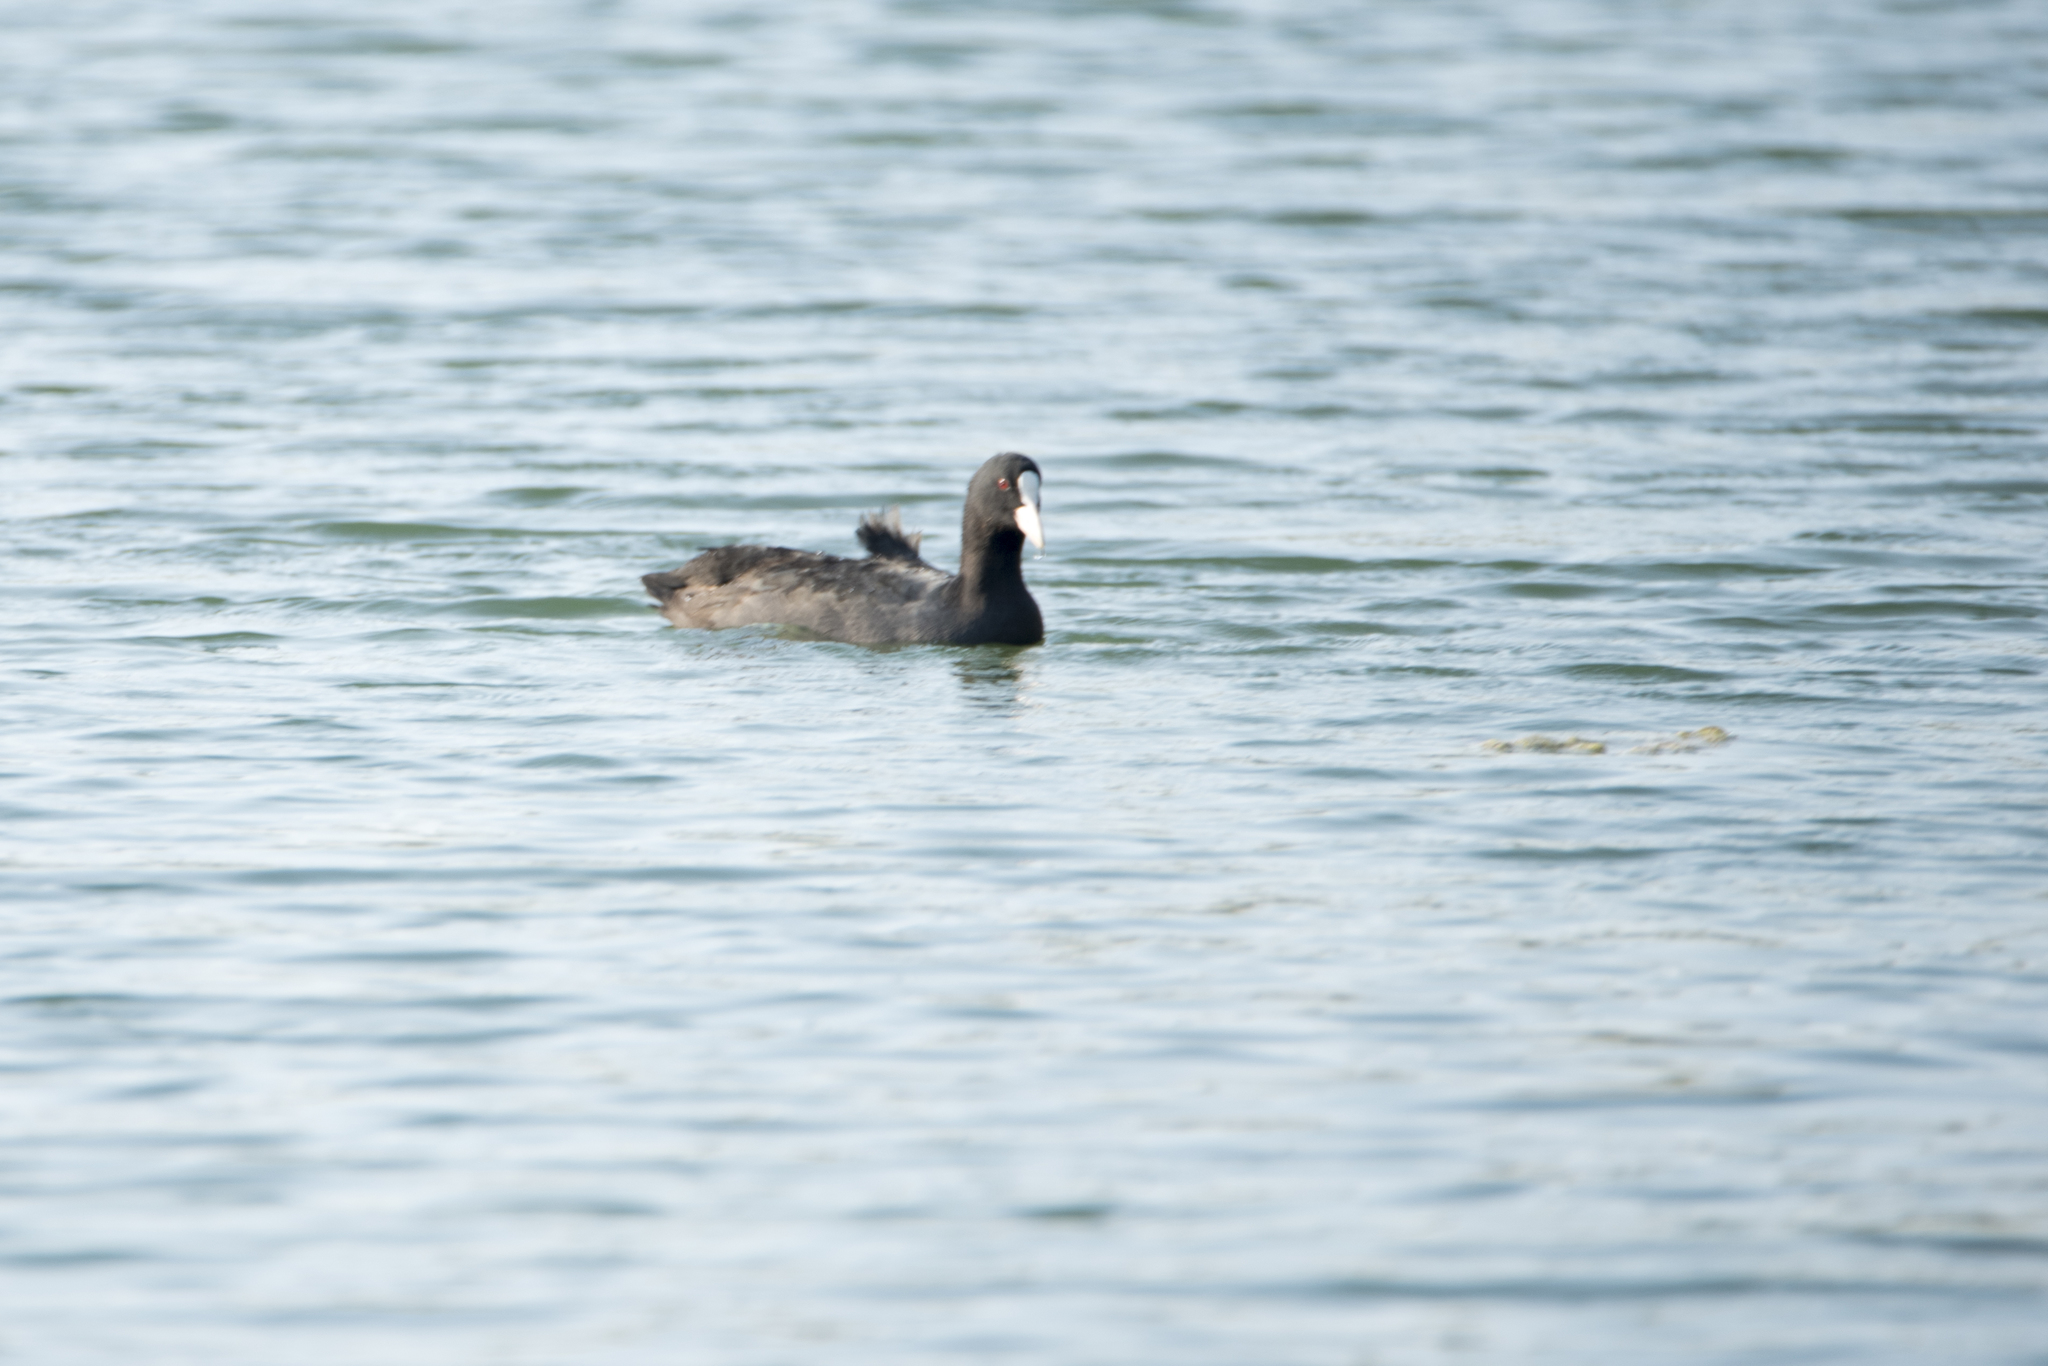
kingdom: Animalia
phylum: Chordata
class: Aves
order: Gruiformes
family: Rallidae
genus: Fulica
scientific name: Fulica atra
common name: Eurasian coot
